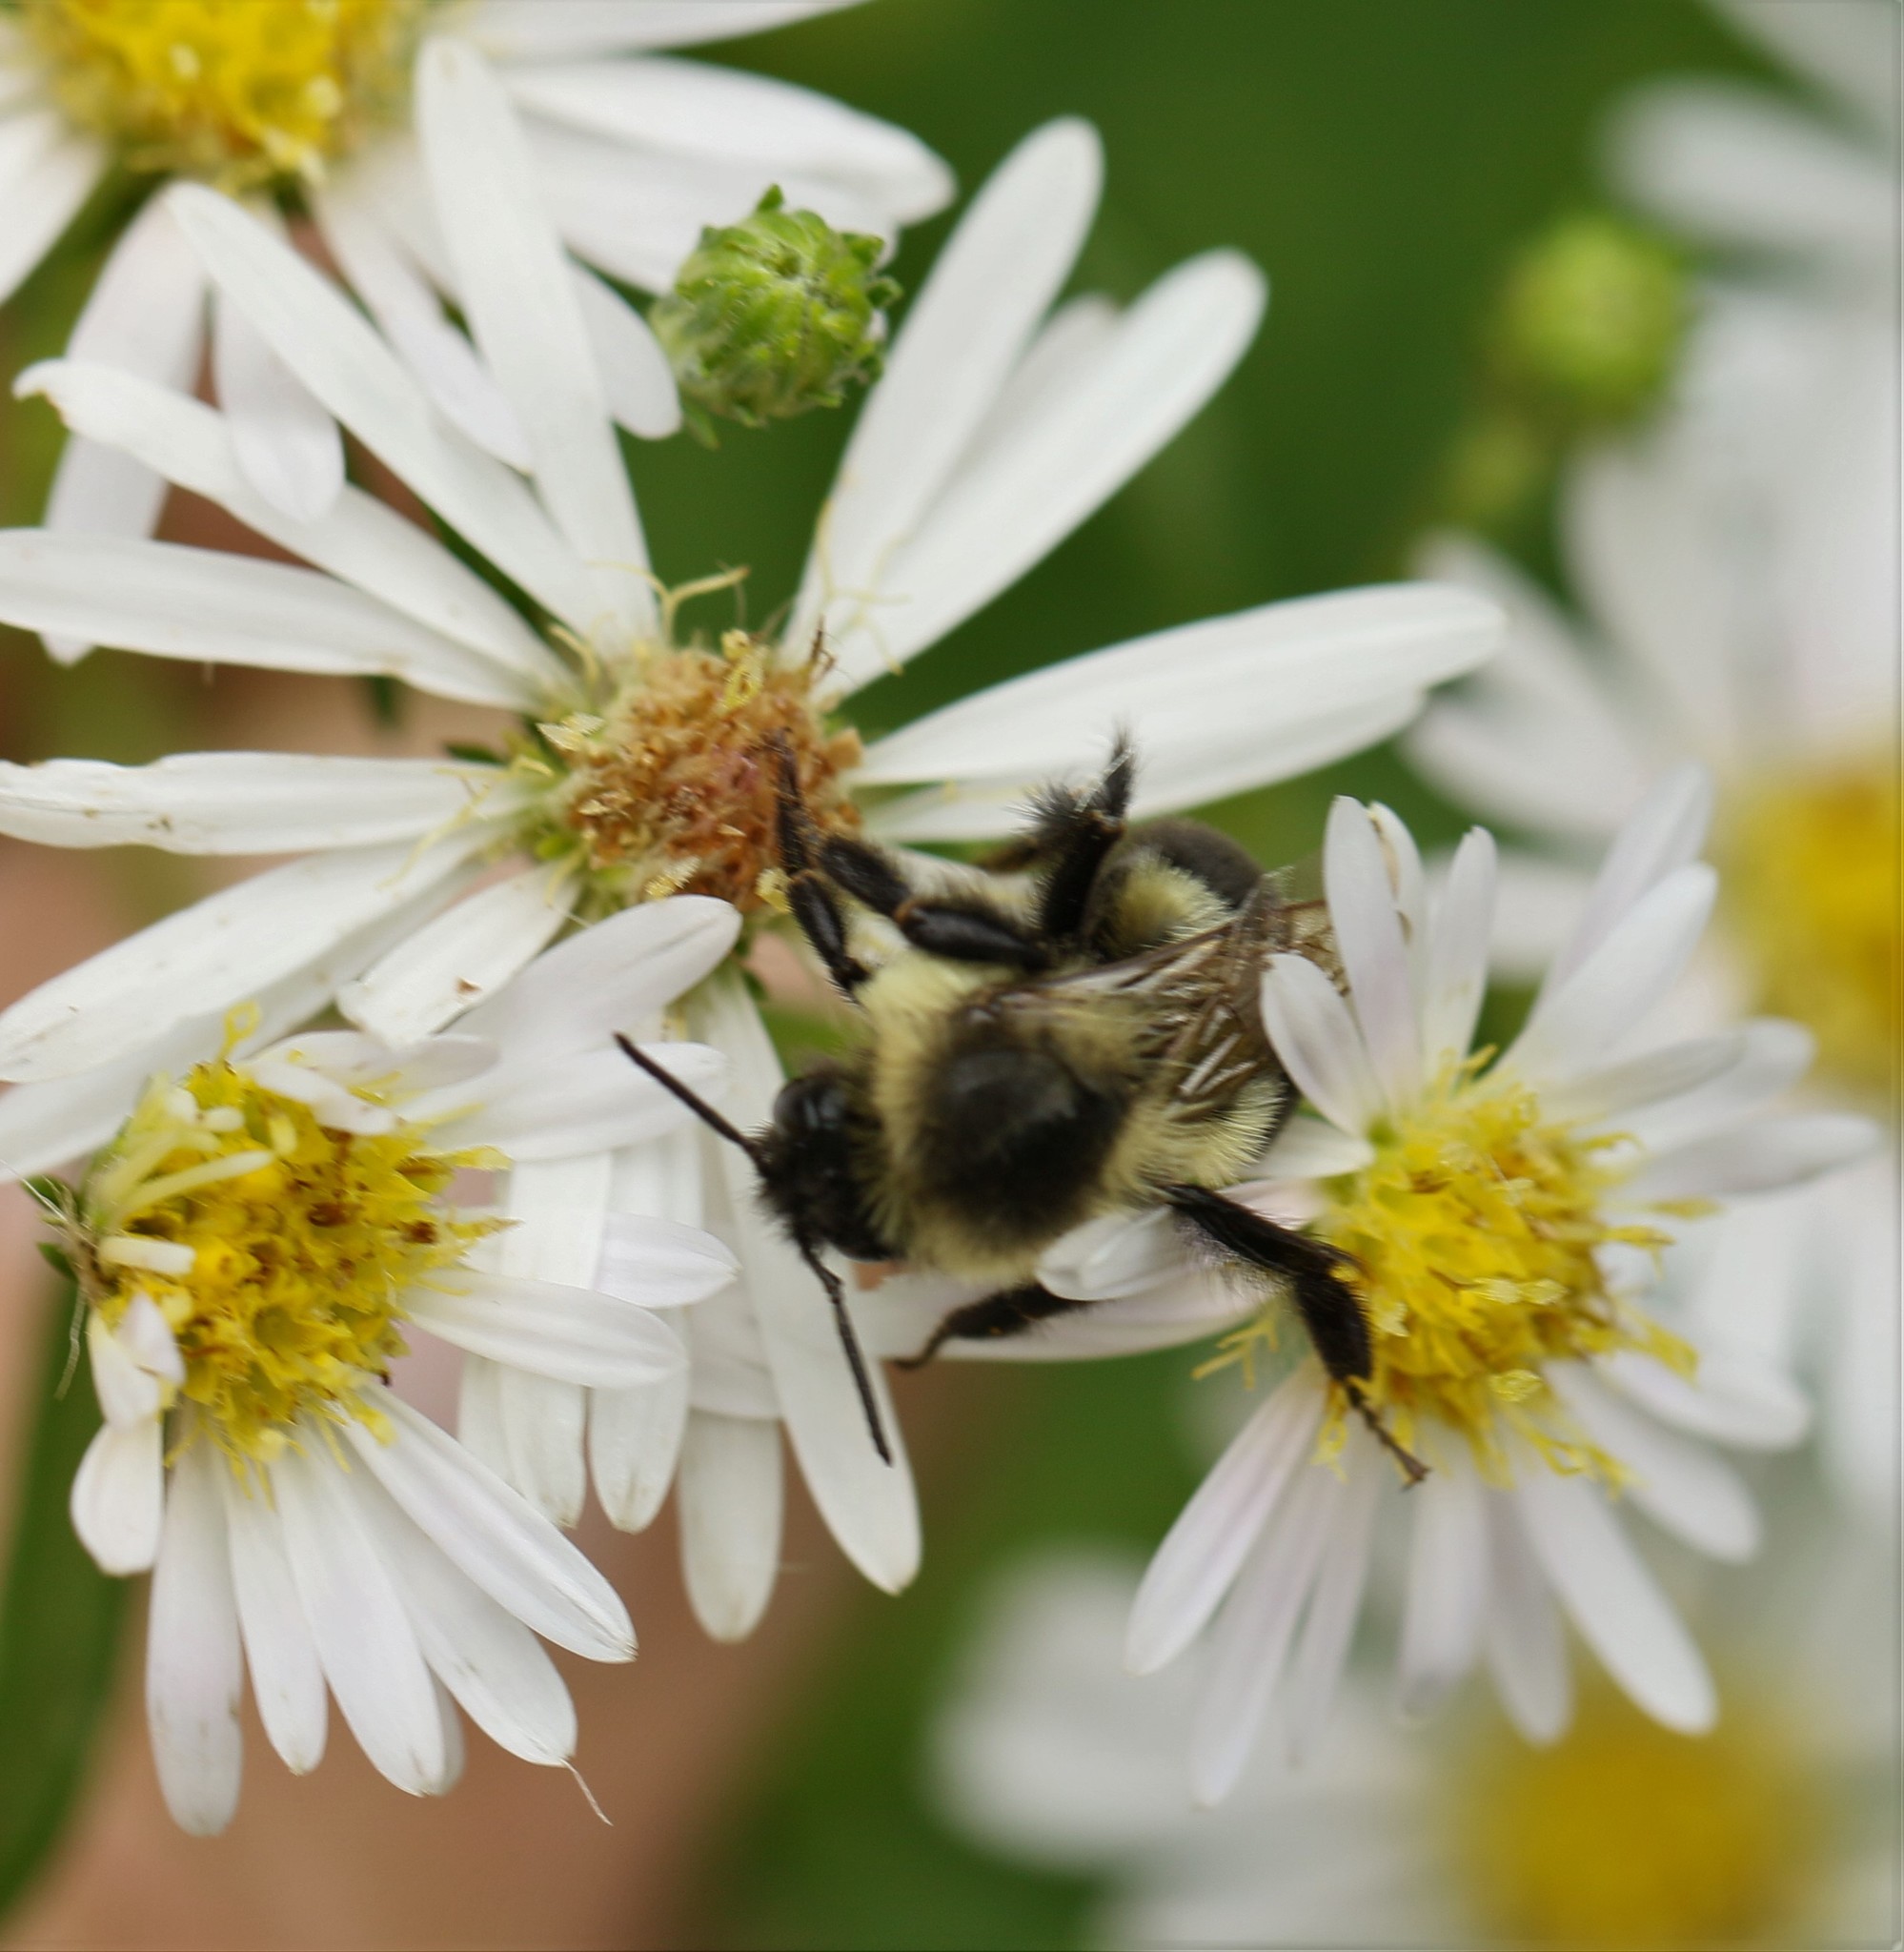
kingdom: Animalia
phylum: Arthropoda
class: Insecta
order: Hymenoptera
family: Apidae
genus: Bombus
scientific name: Bombus impatiens
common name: Common eastern bumble bee
